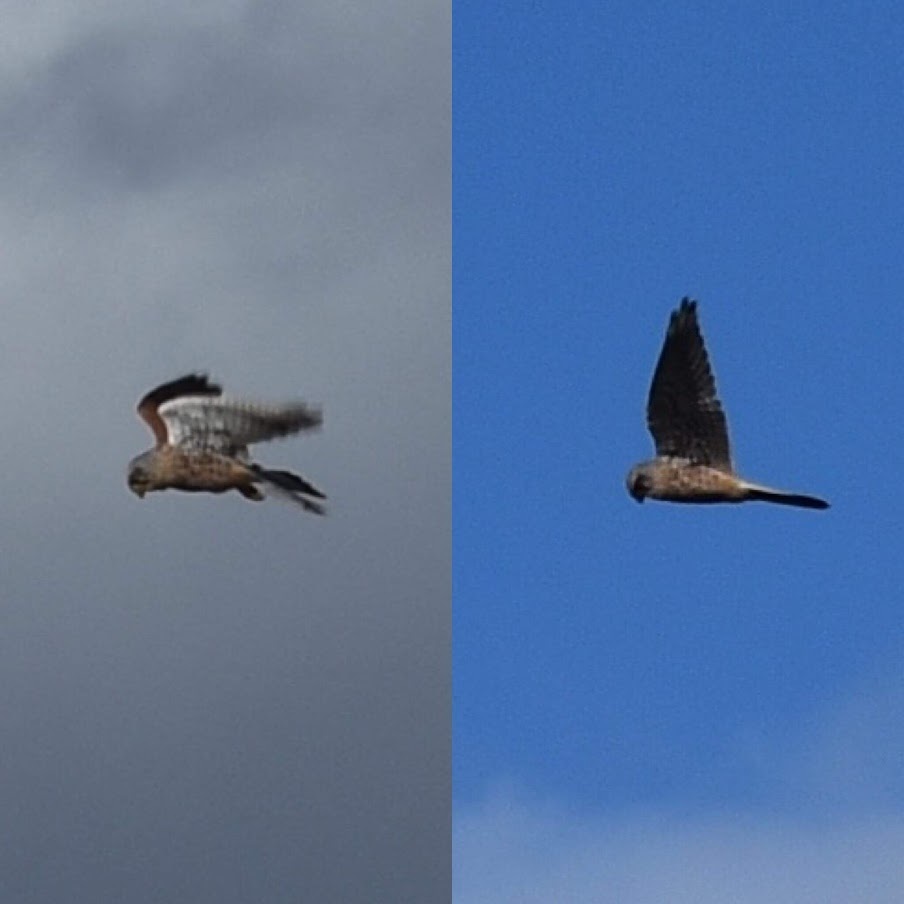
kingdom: Animalia
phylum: Chordata
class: Aves
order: Falconiformes
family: Falconidae
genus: Falco
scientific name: Falco tinnunculus
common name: Common kestrel
